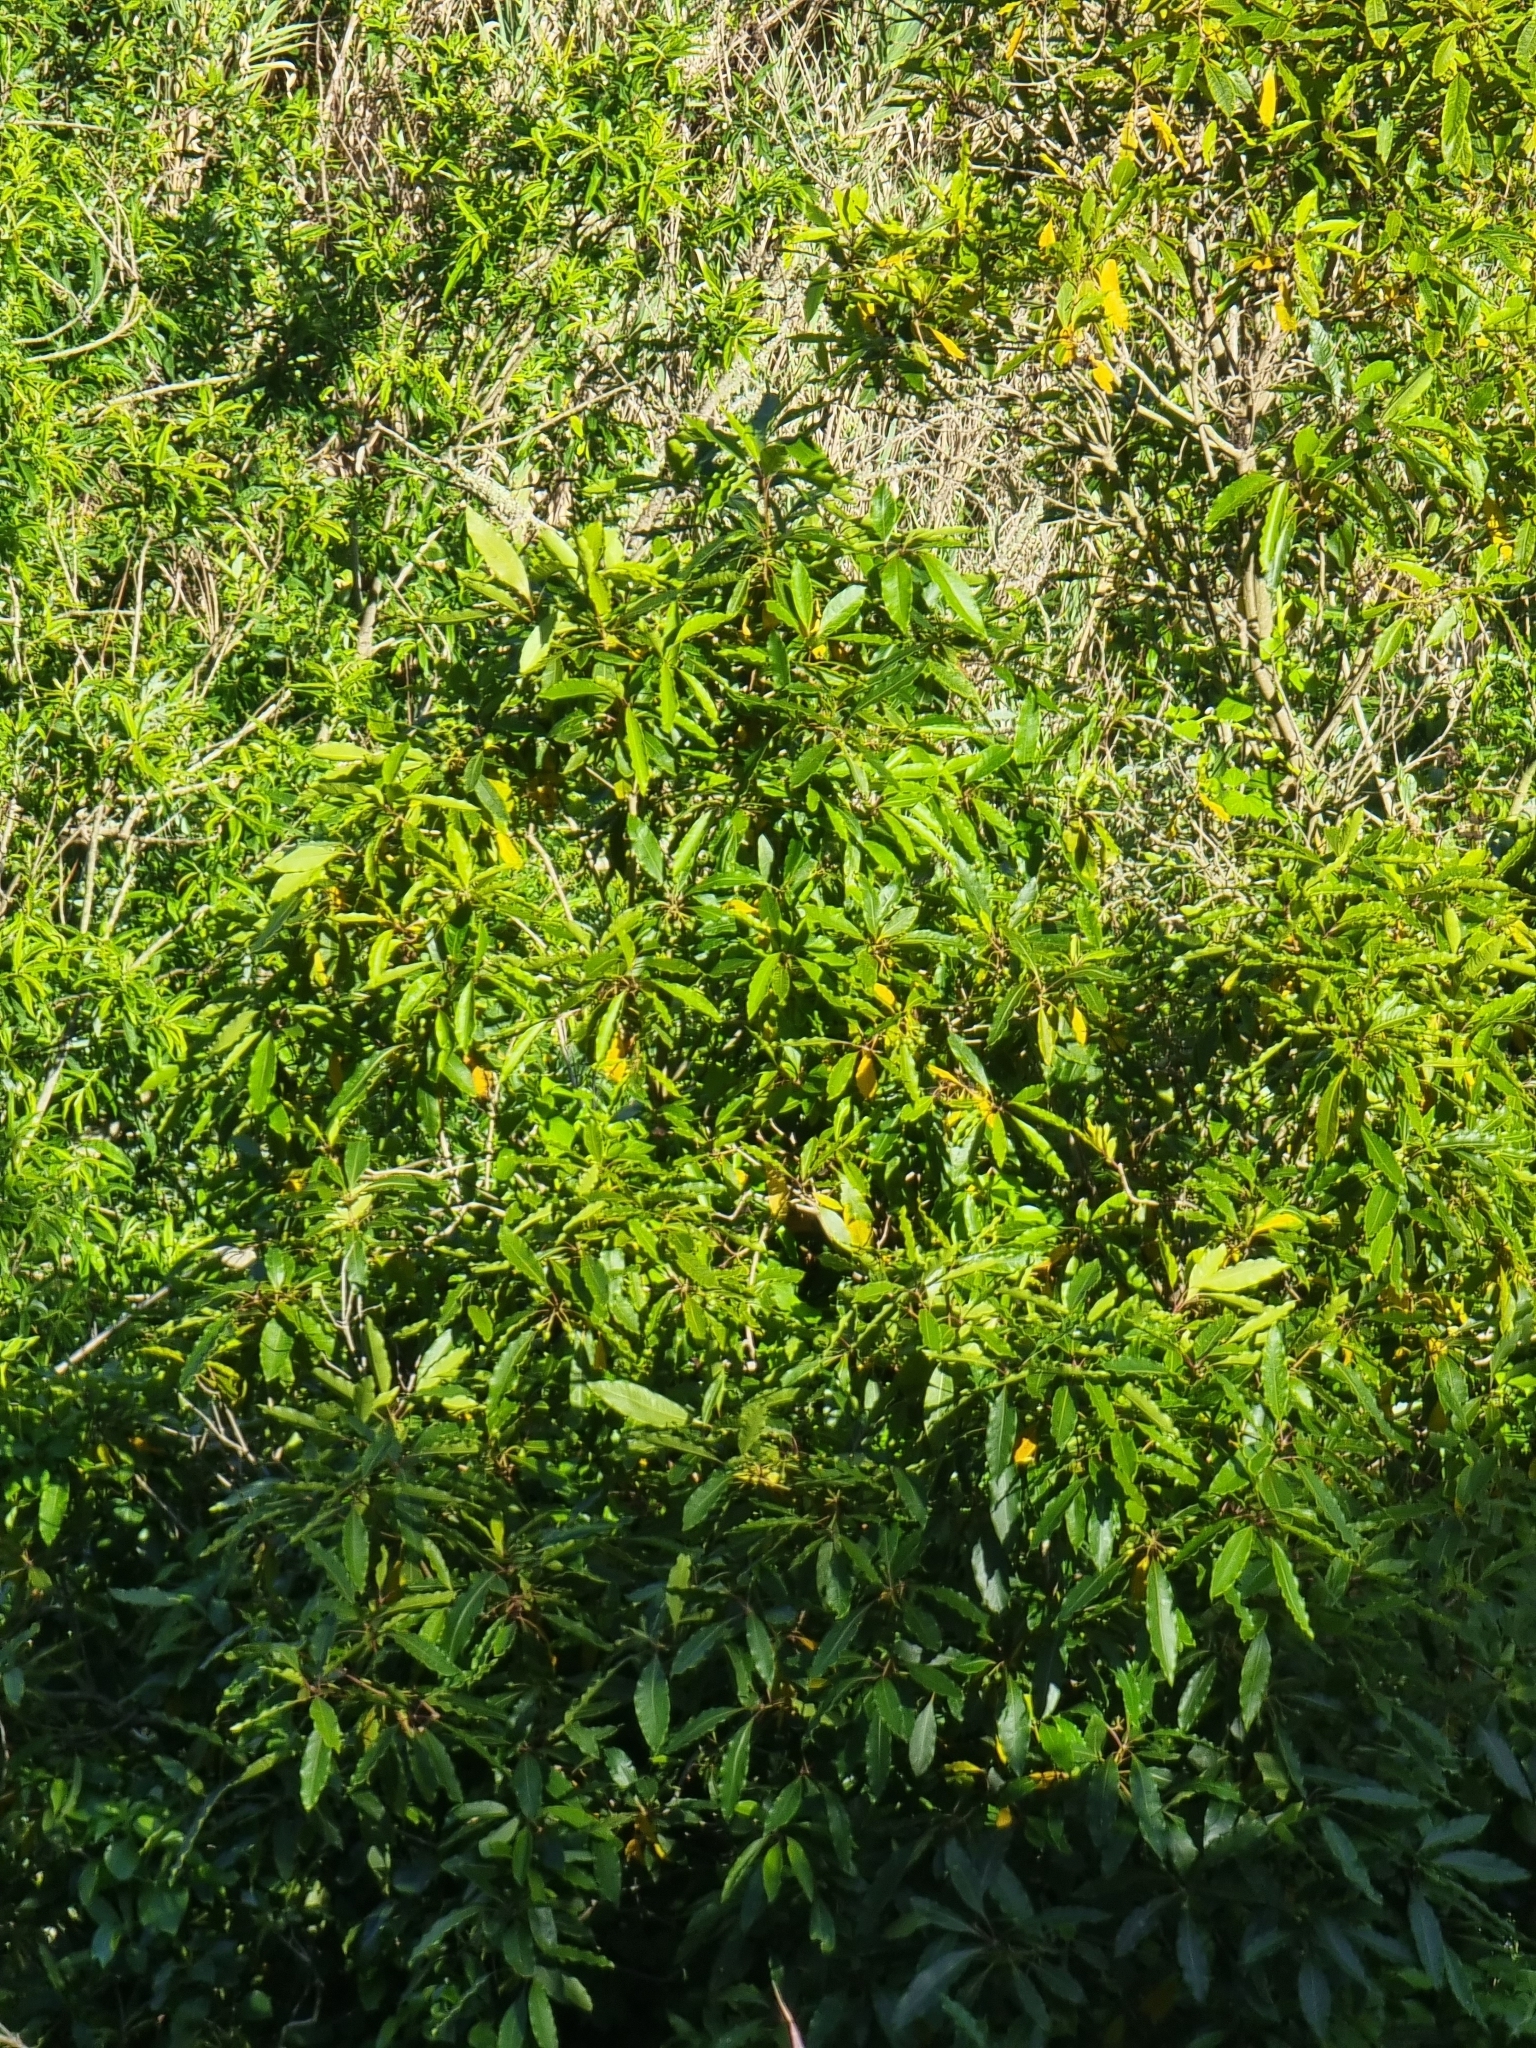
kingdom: Plantae
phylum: Tracheophyta
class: Magnoliopsida
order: Apiales
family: Pittosporaceae
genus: Pittosporum
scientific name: Pittosporum undulatum
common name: Australian cheesewood
